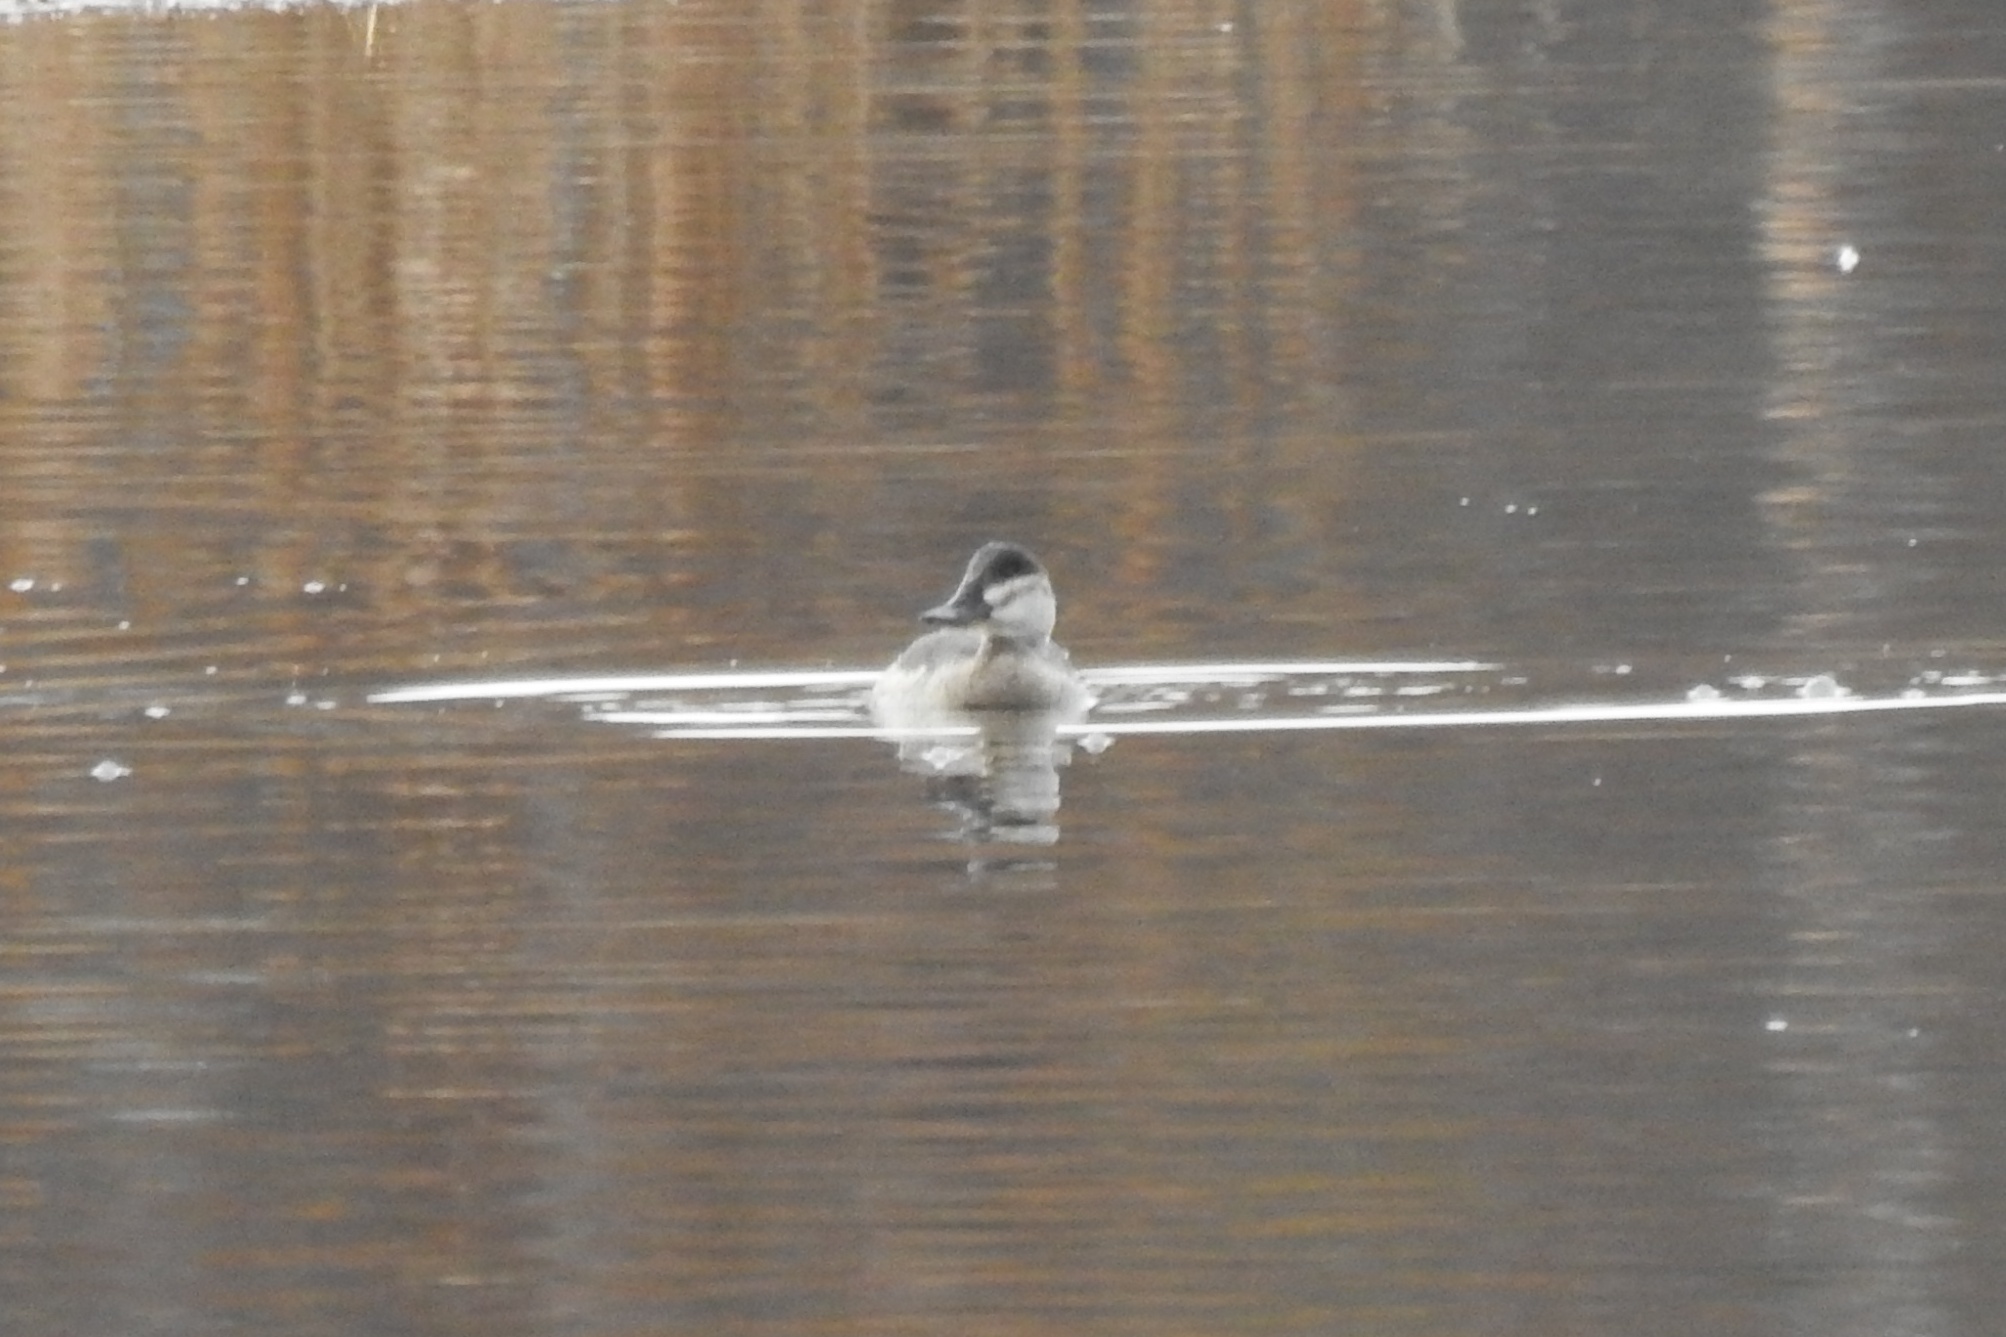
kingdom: Animalia
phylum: Chordata
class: Aves
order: Anseriformes
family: Anatidae
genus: Oxyura
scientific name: Oxyura jamaicensis
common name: Ruddy duck
